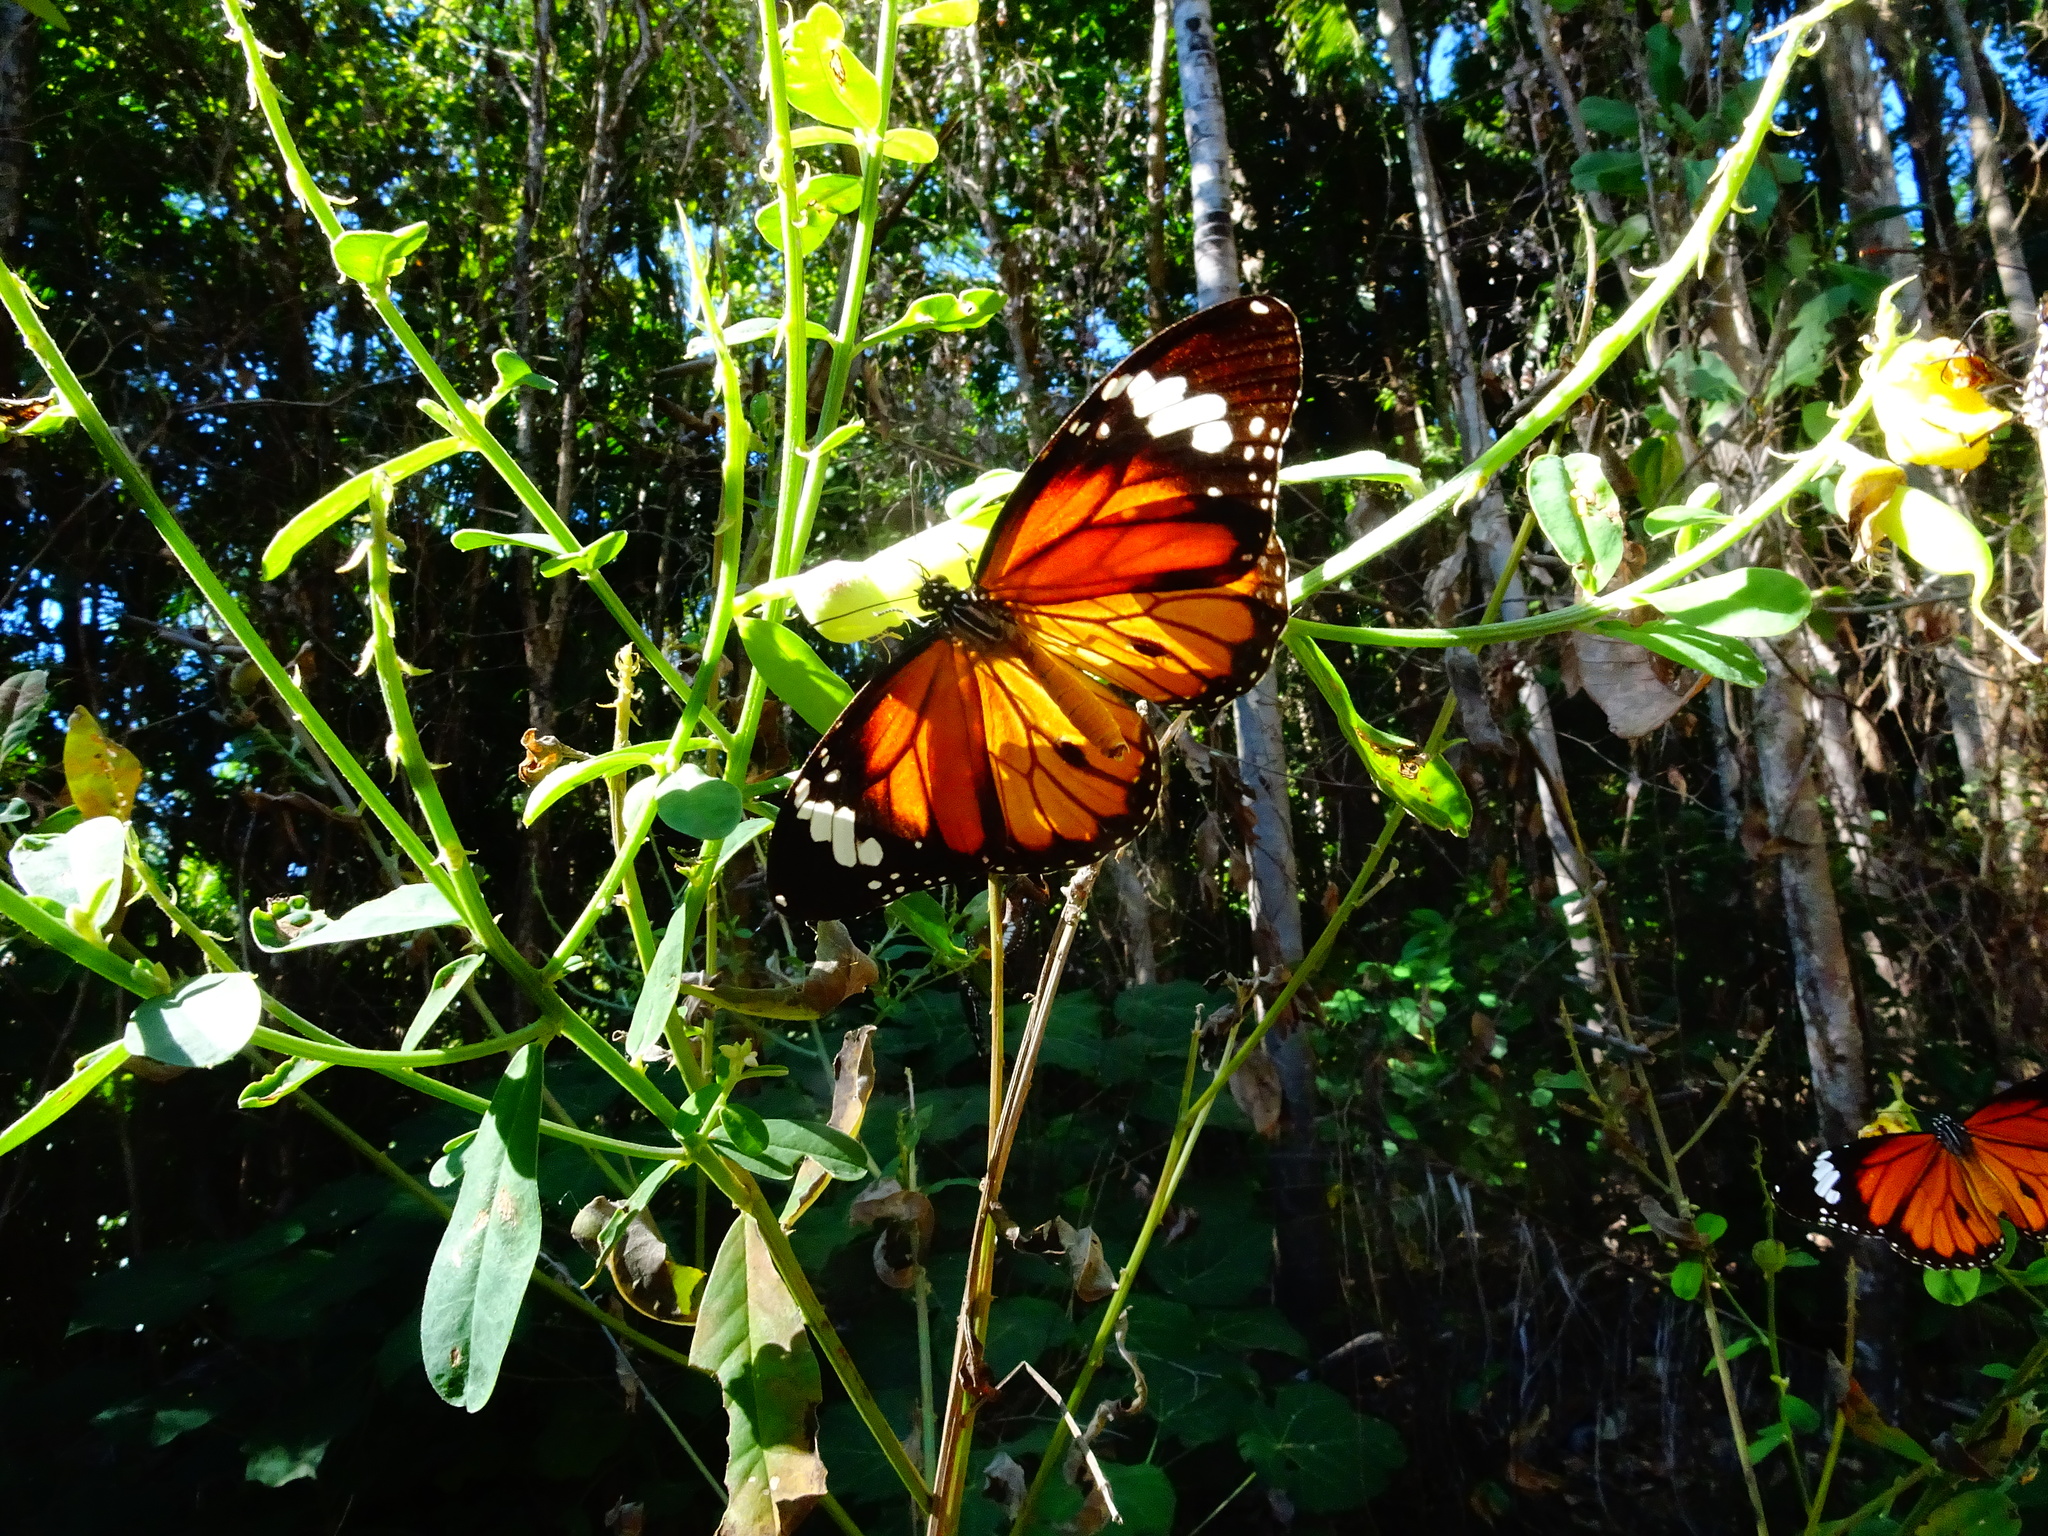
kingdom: Animalia
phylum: Arthropoda
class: Insecta
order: Lepidoptera
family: Nymphalidae
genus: Danaus
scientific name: Danaus genutia
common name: Common tiger butterfly
